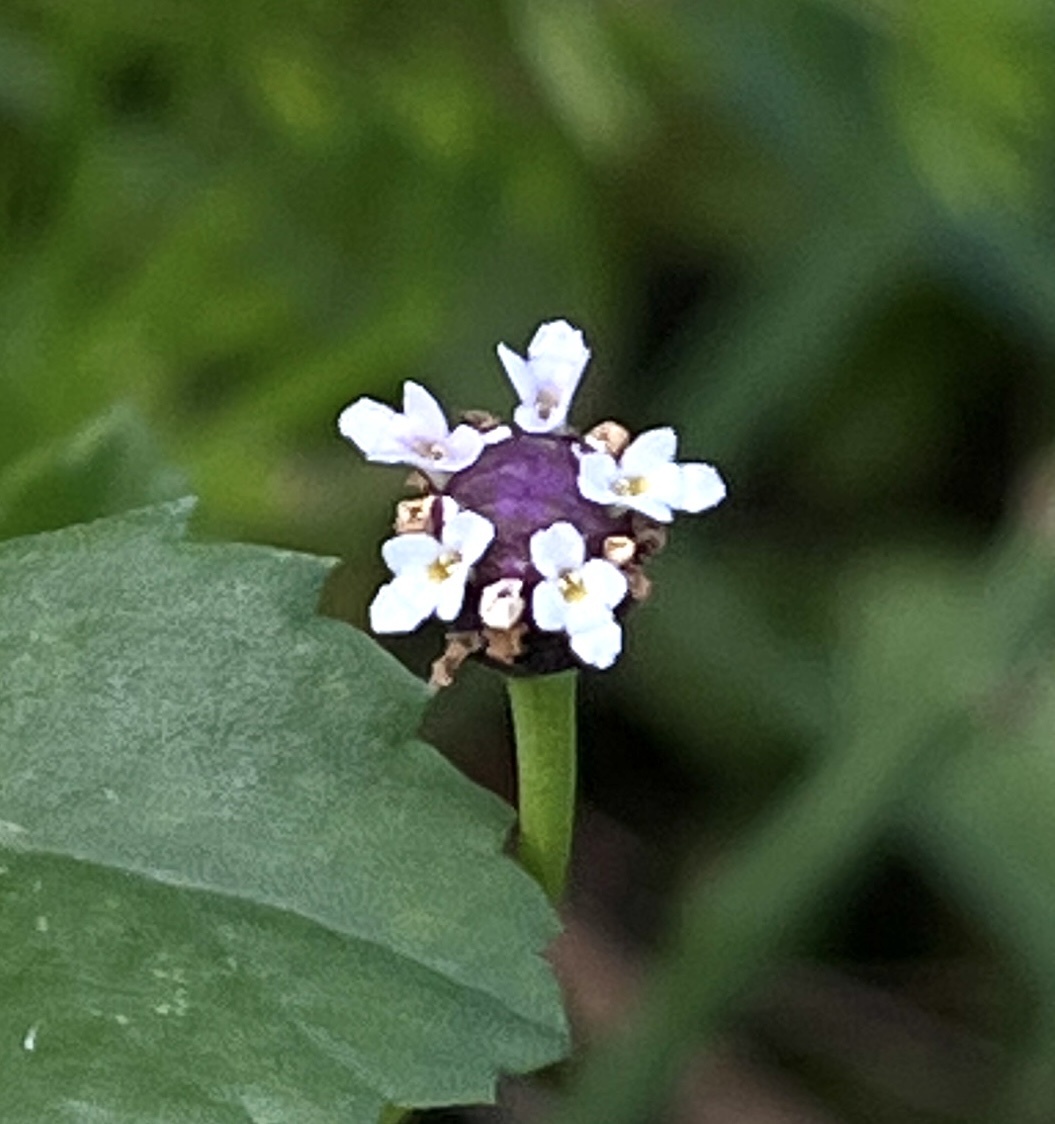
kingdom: Plantae
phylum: Tracheophyta
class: Magnoliopsida
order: Lamiales
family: Verbenaceae
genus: Phyla
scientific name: Phyla nodiflora
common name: Frogfruit
